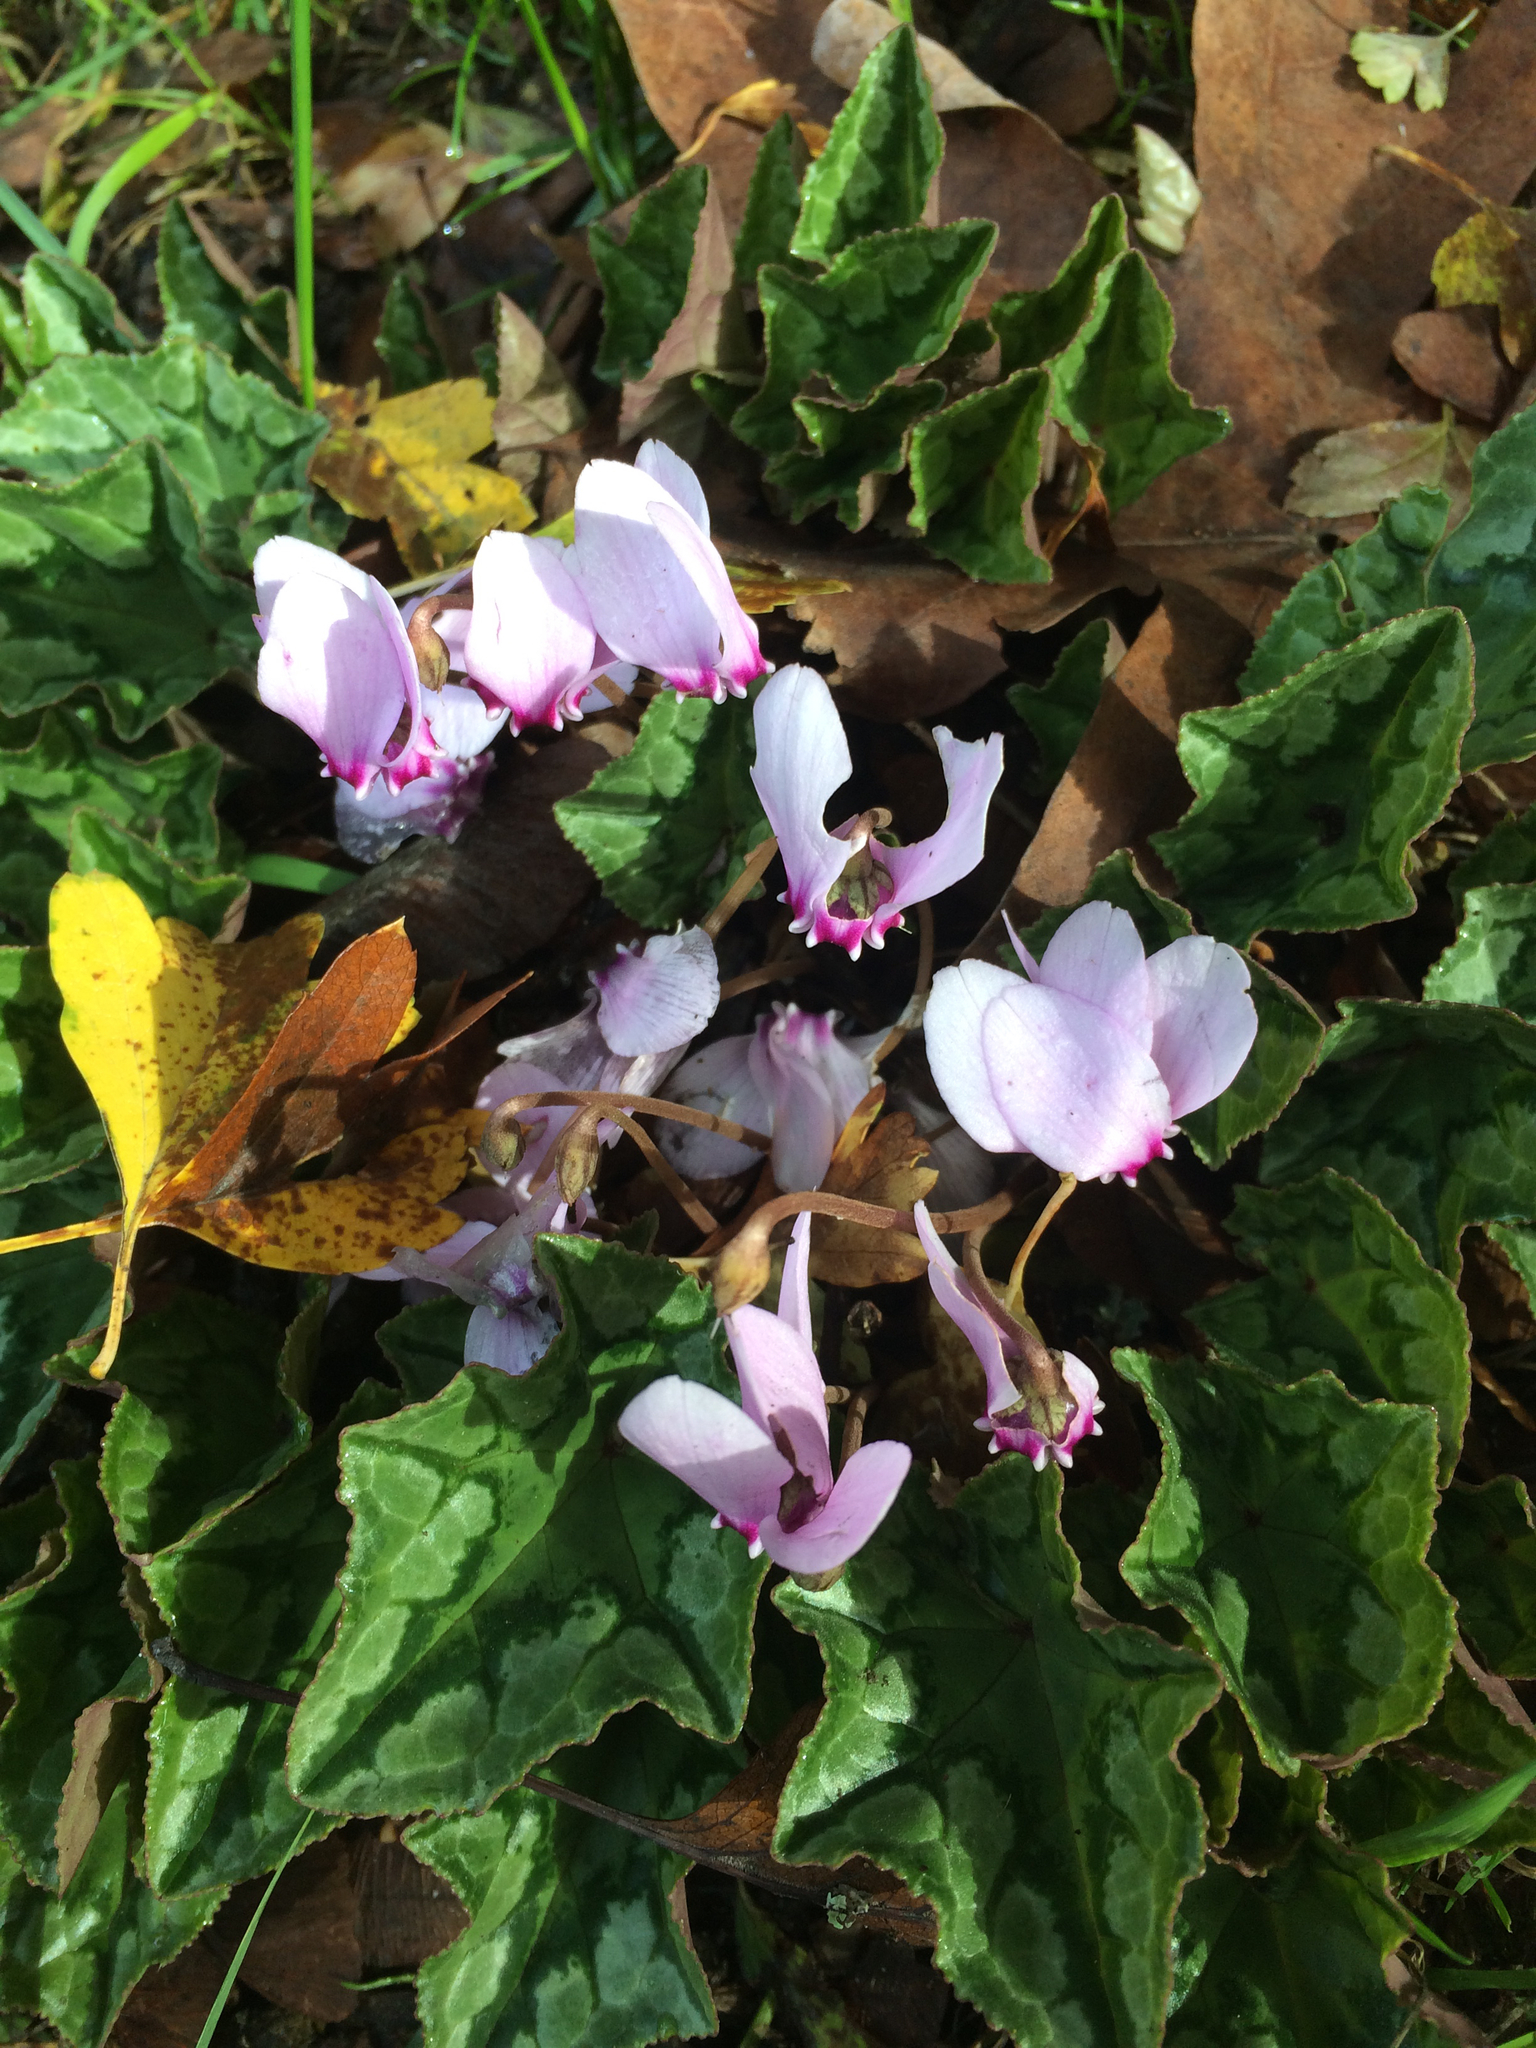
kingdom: Plantae
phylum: Tracheophyta
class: Magnoliopsida
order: Ericales
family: Primulaceae
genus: Cyclamen
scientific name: Cyclamen hederifolium
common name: Sowbread
